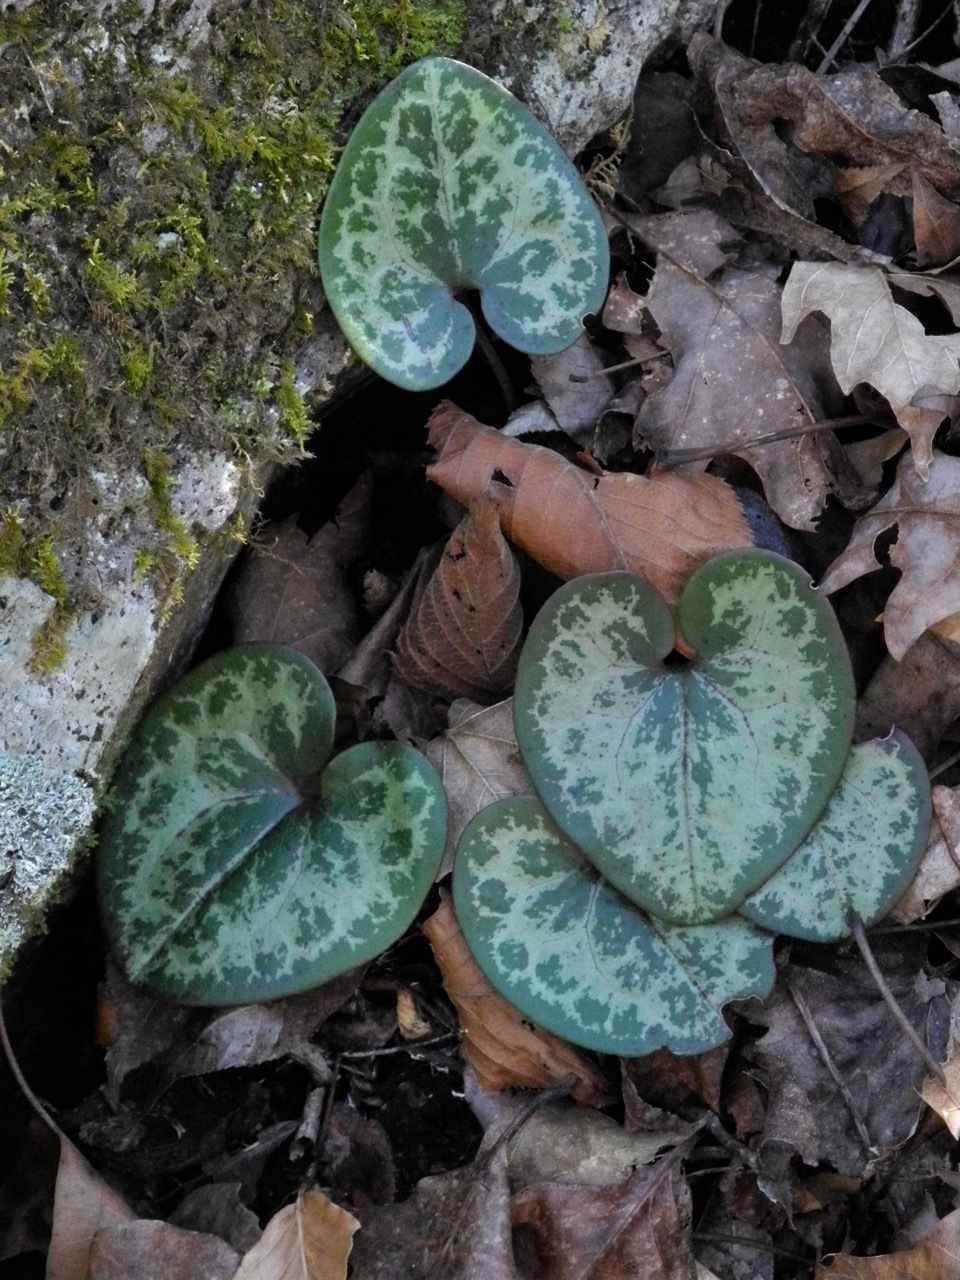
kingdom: Plantae
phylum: Tracheophyta
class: Magnoliopsida
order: Piperales
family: Aristolochiaceae
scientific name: Aristolochiaceae
